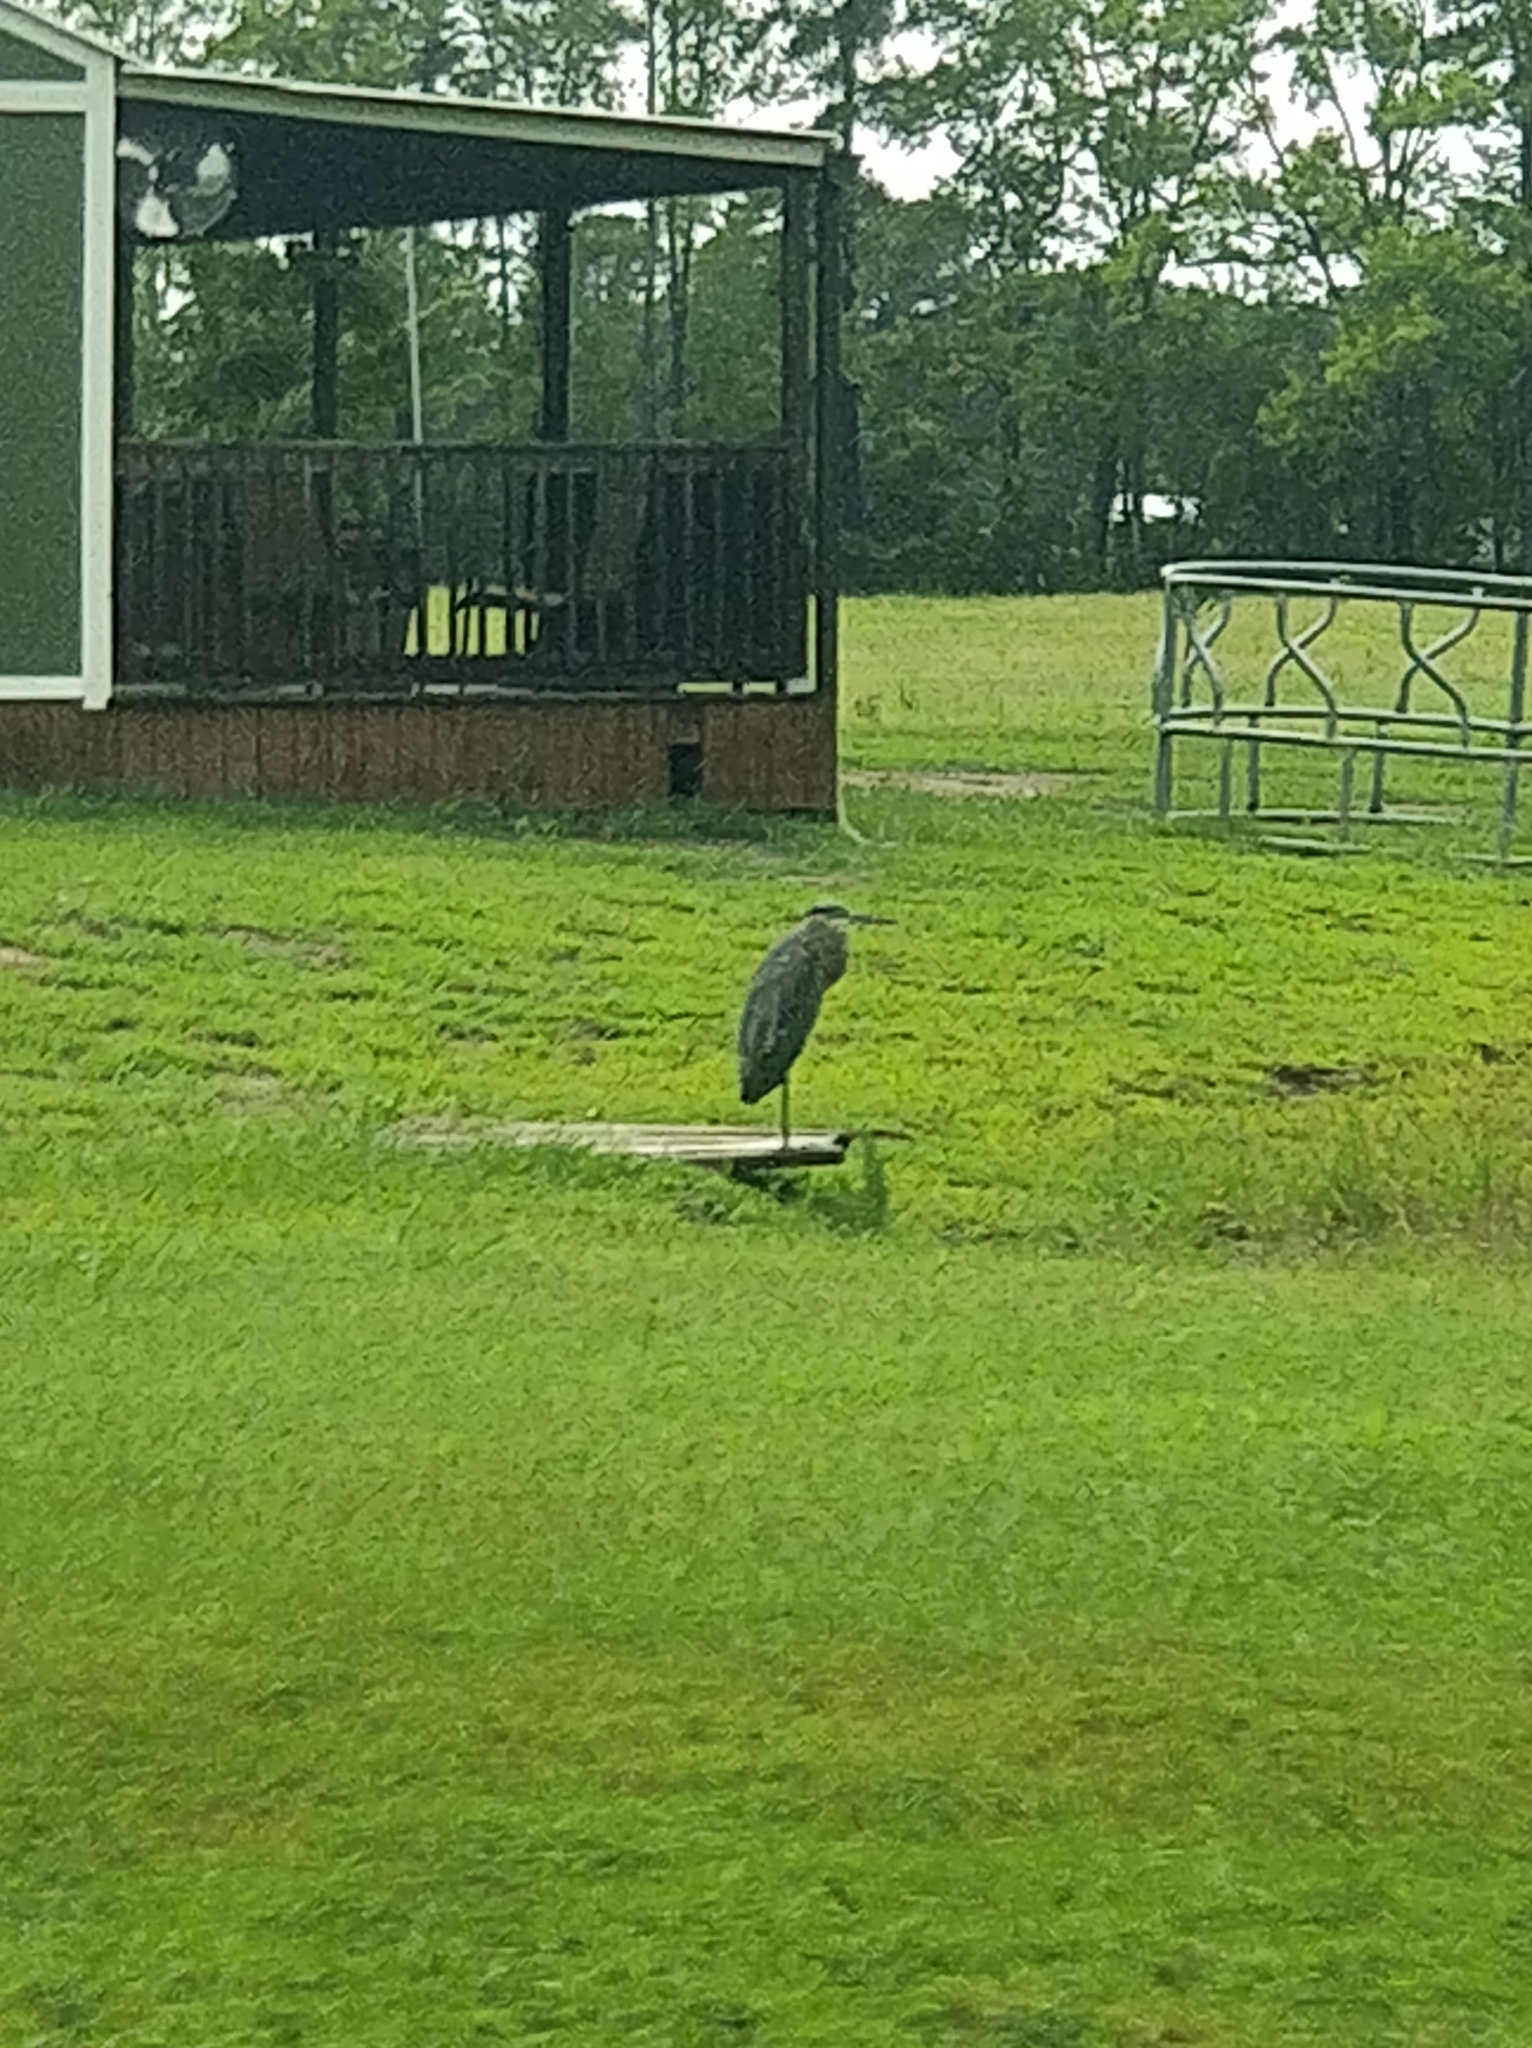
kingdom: Animalia
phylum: Chordata
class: Aves
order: Pelecaniformes
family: Ardeidae
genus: Ardea
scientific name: Ardea herodias
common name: Great blue heron
